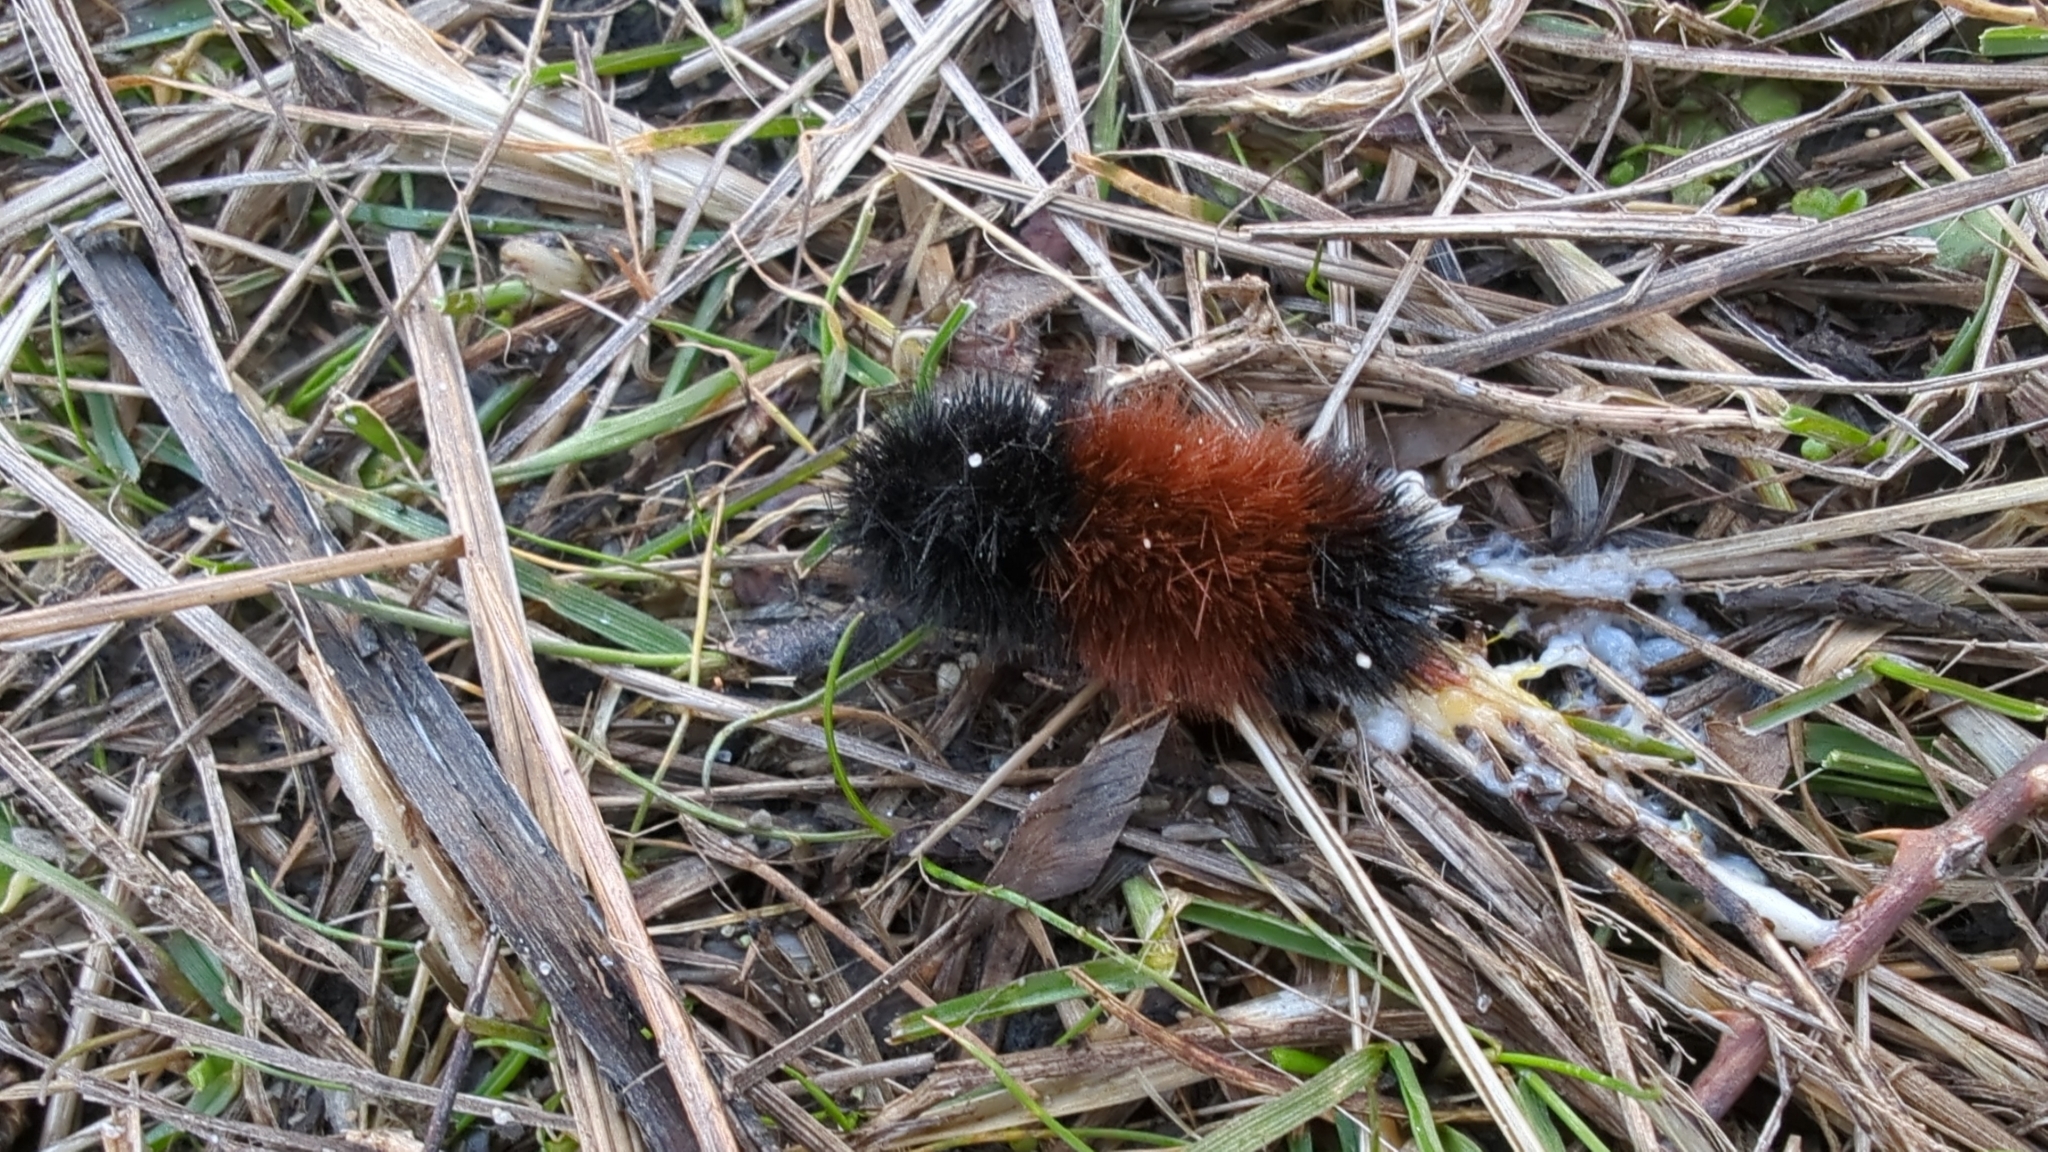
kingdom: Animalia
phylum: Arthropoda
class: Insecta
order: Lepidoptera
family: Erebidae
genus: Pyrrharctia
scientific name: Pyrrharctia isabella
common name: Isabella tiger moth
